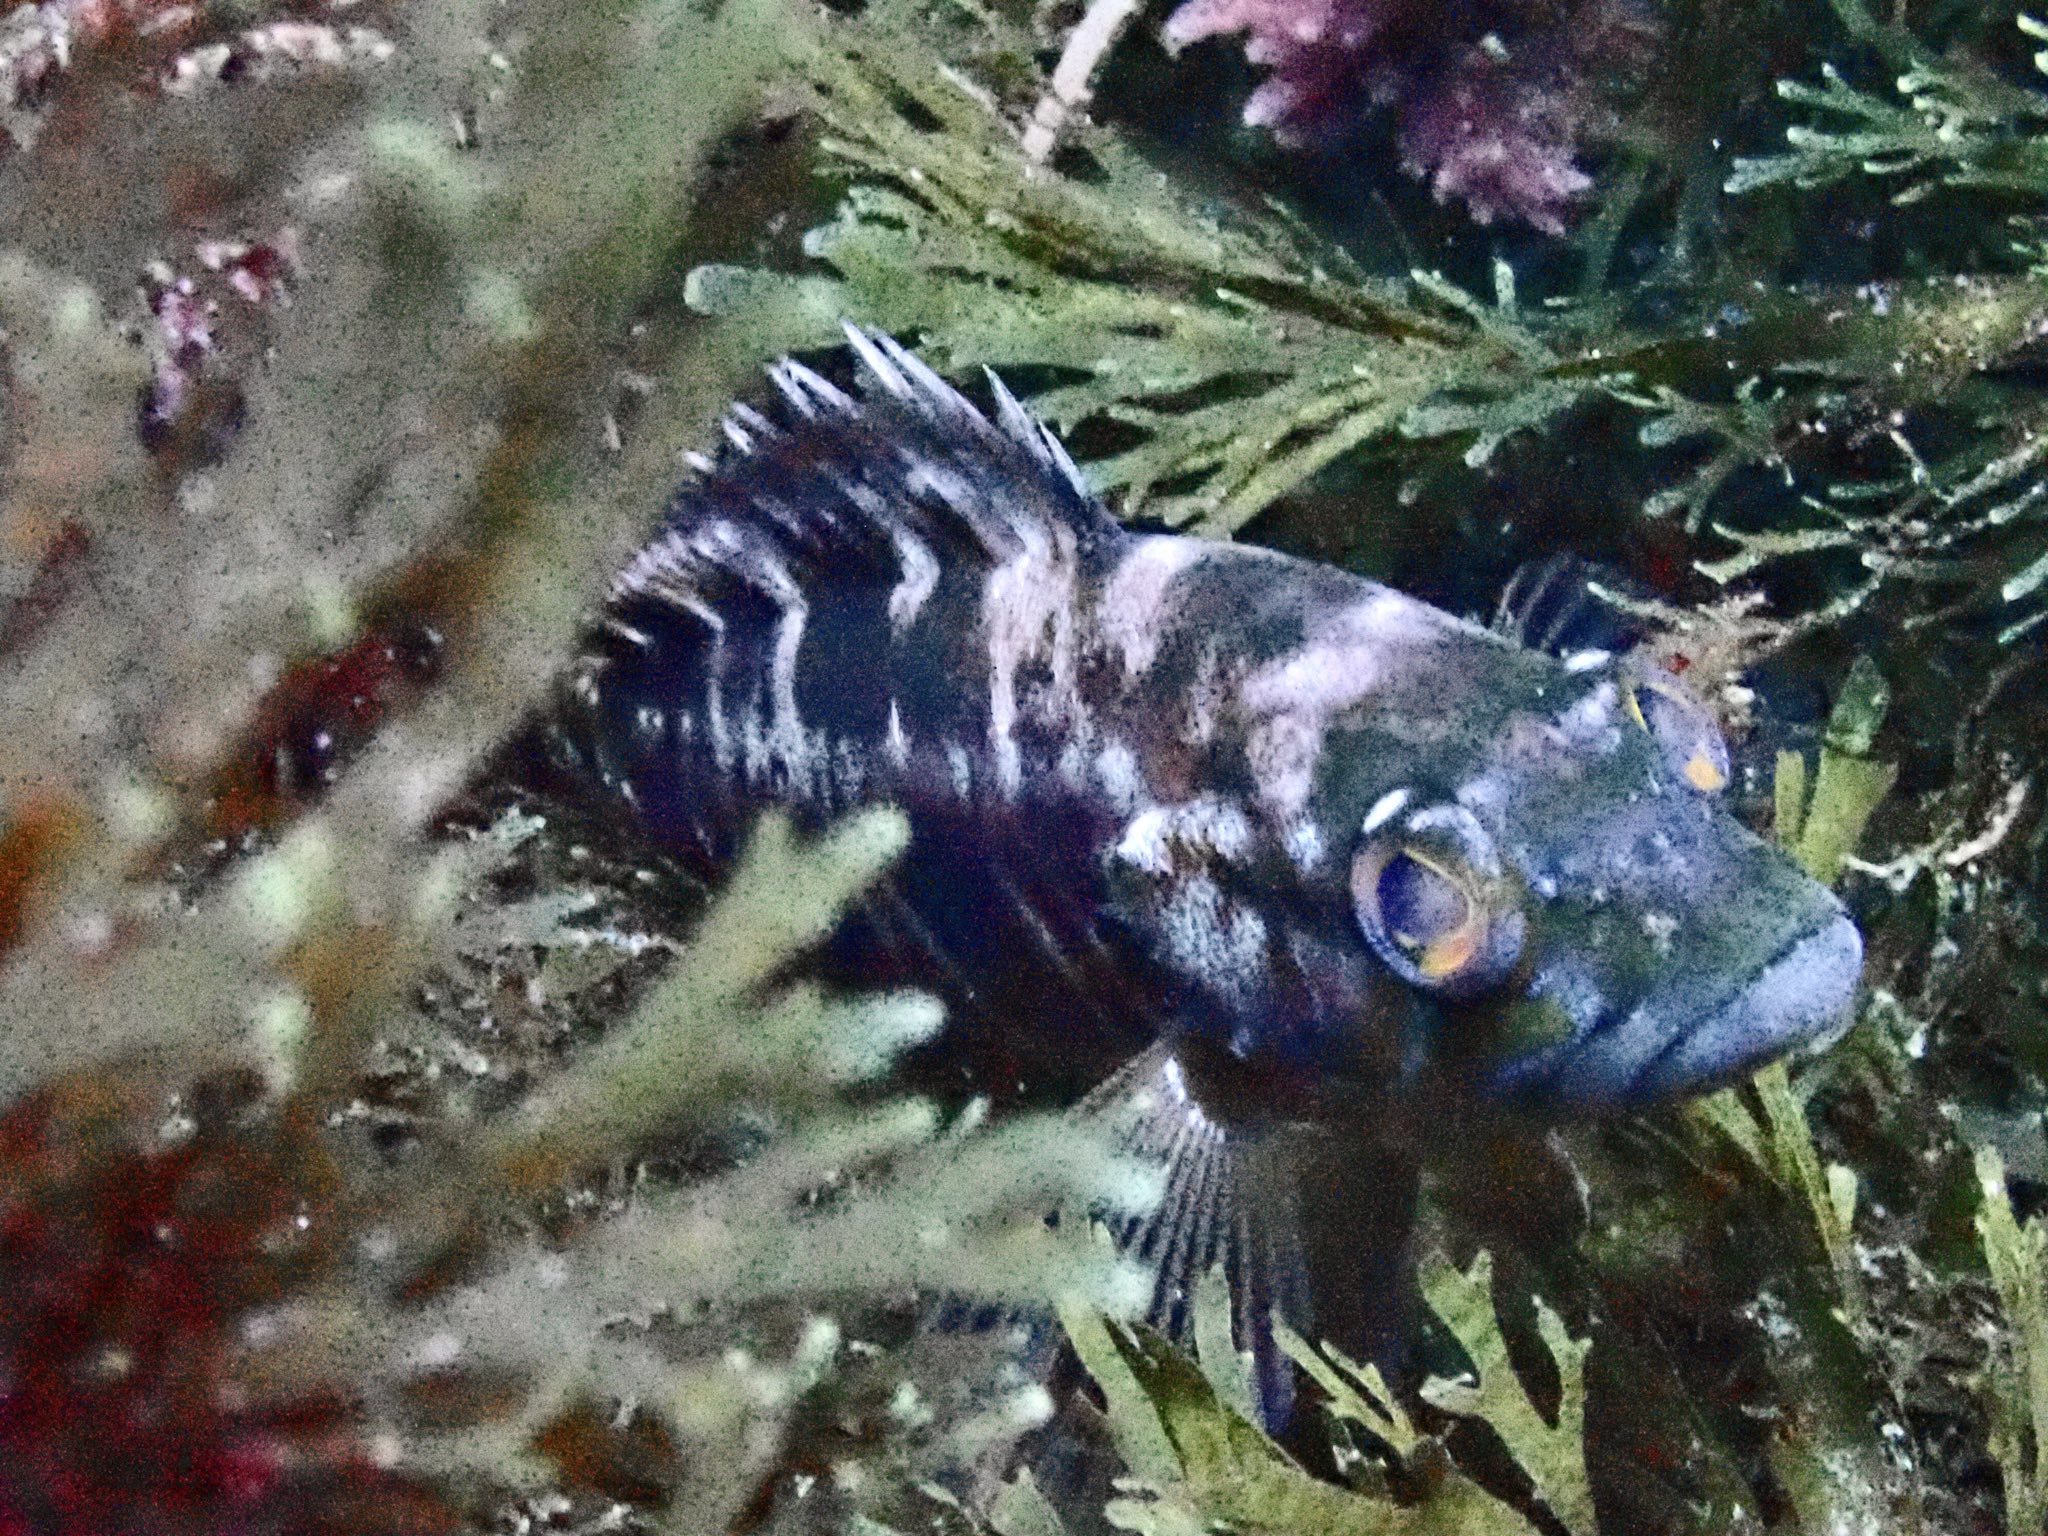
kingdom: Animalia
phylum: Chordata
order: Perciformes
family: Serranidae
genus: Serranus
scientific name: Serranus atricauda
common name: Blacktail comber
